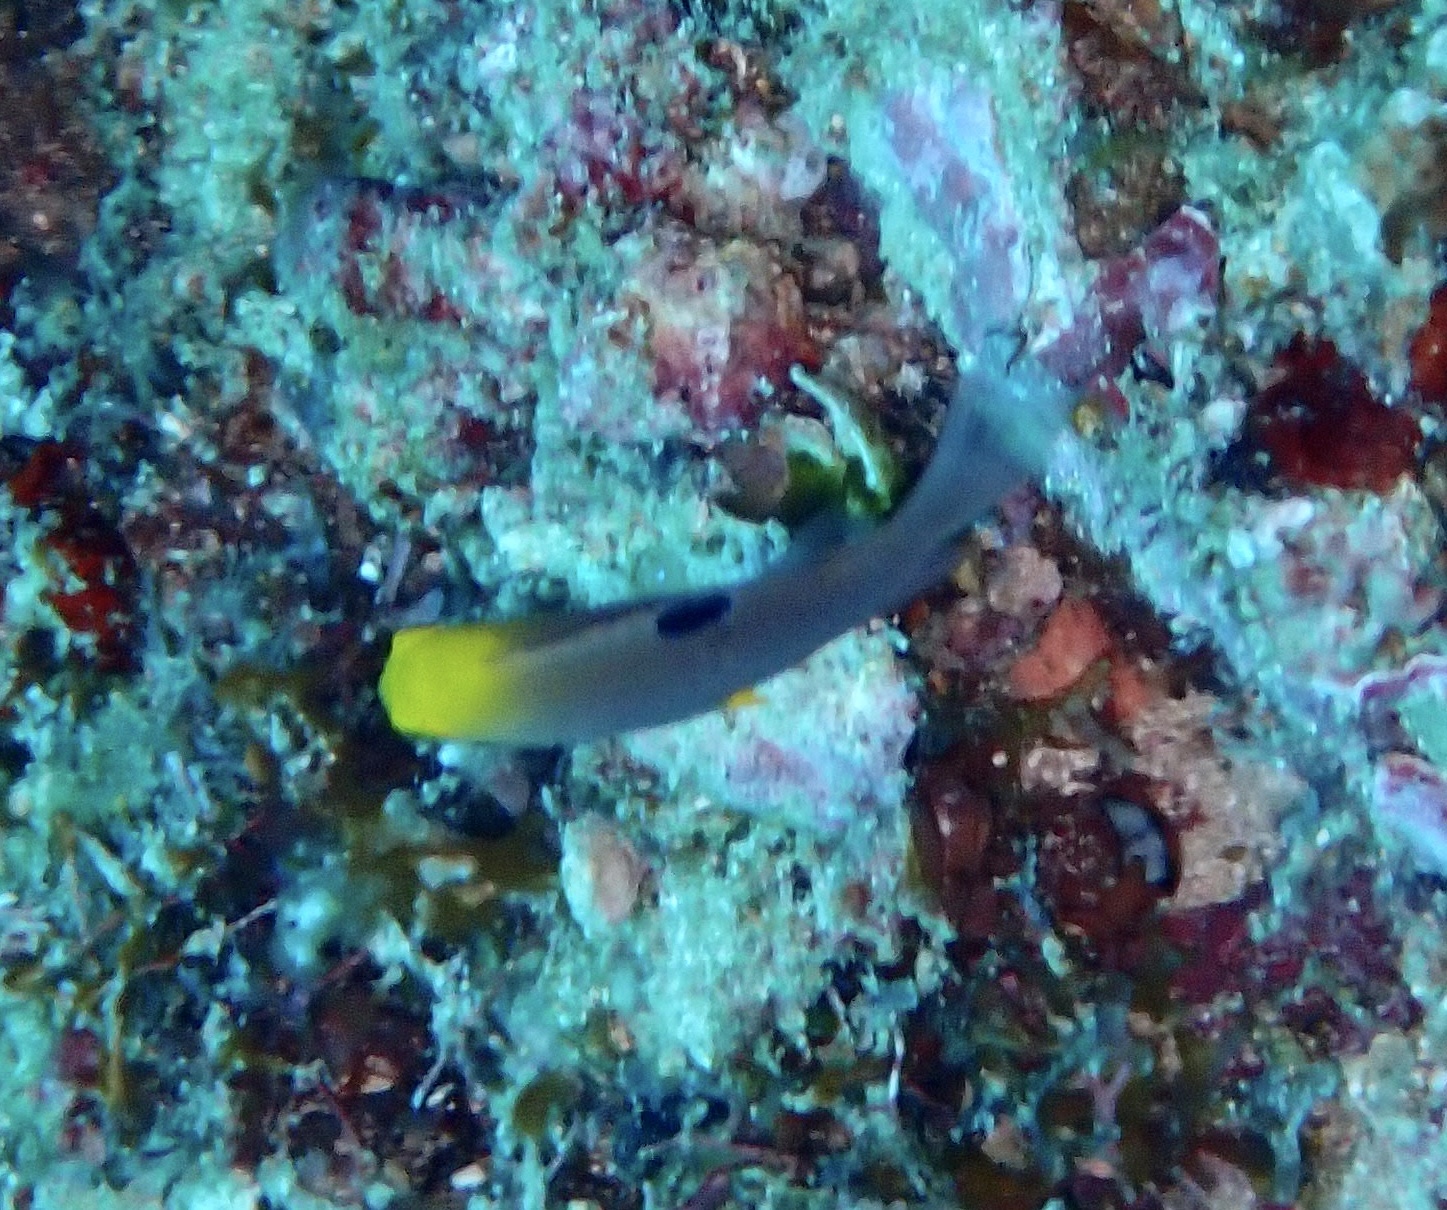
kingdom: Animalia
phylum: Chordata
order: Perciformes
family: Pomacentridae
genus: Chrysiptera
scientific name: Chrysiptera talboti
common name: Talbot's demoiselle
